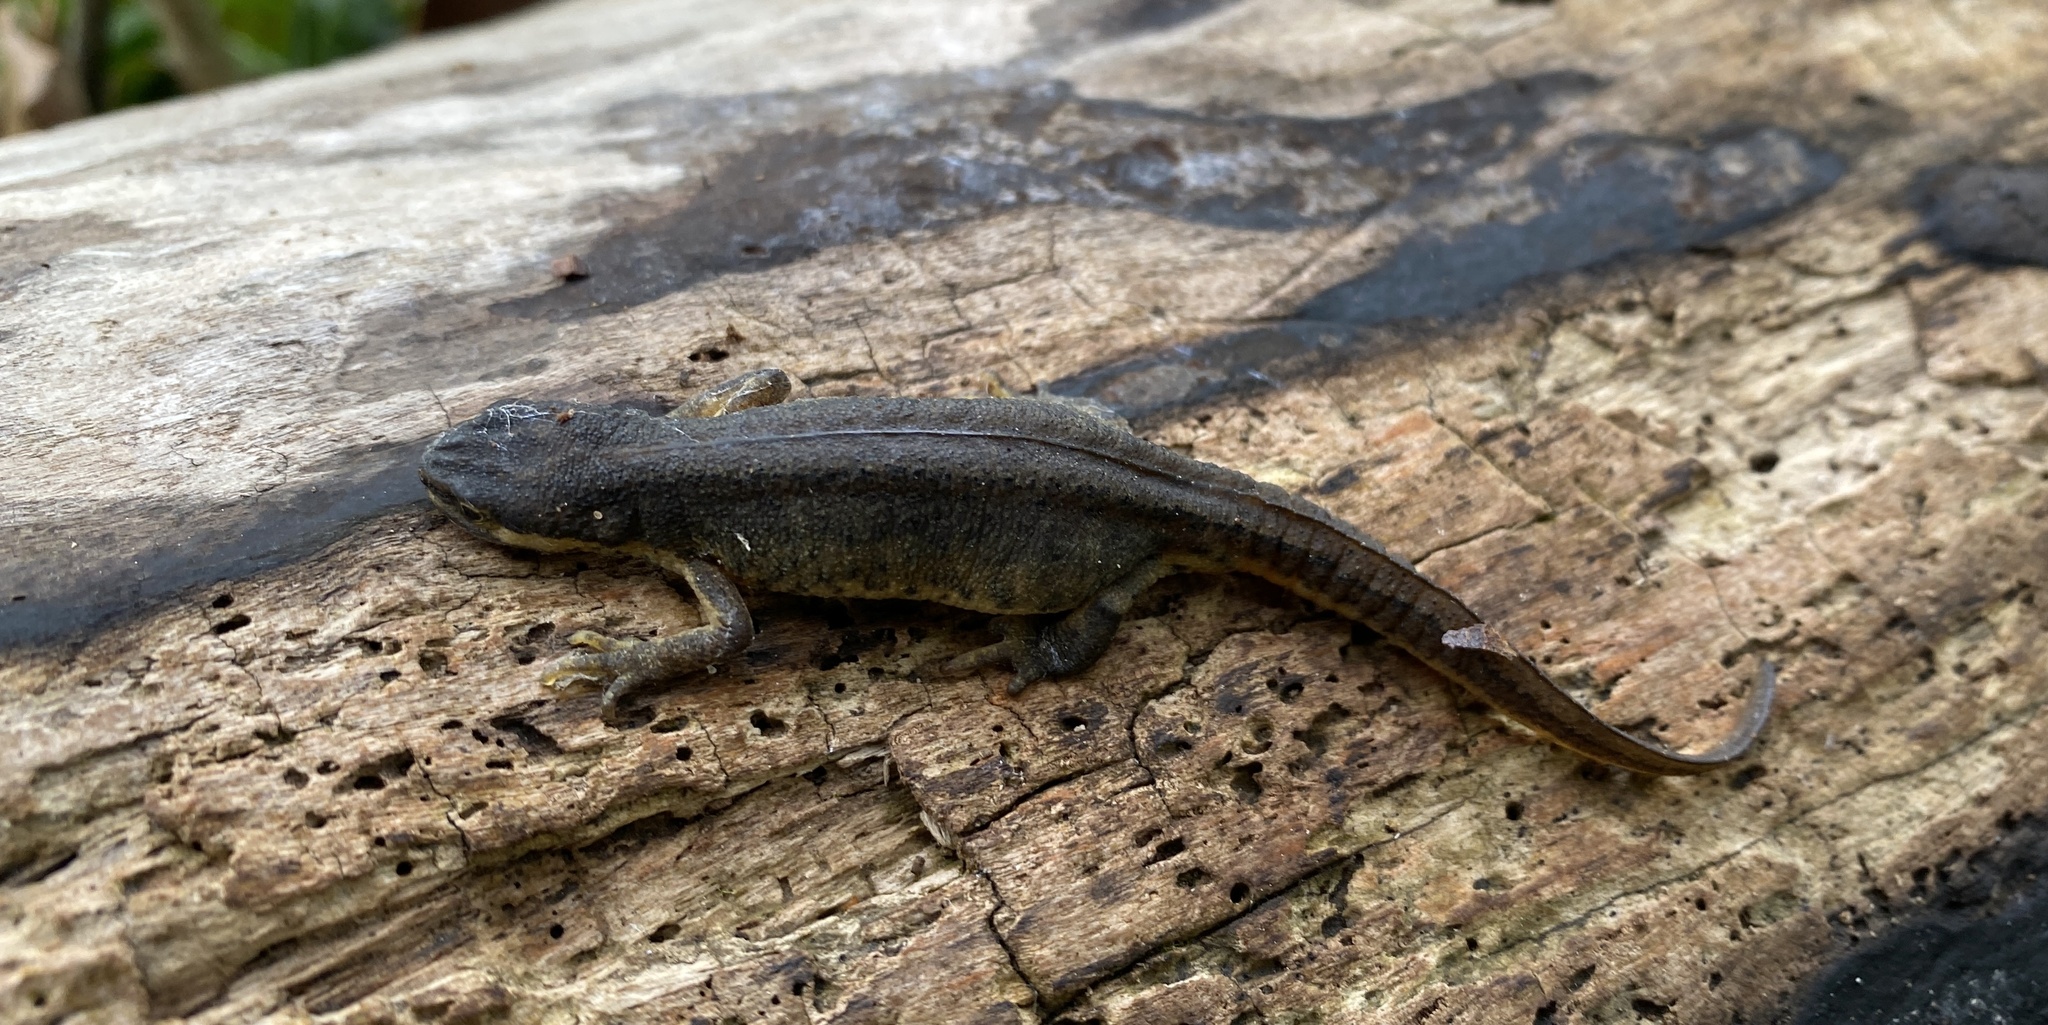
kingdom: Animalia
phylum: Chordata
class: Amphibia
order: Caudata
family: Salamandridae
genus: Lissotriton
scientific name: Lissotriton vulgaris
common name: Smooth newt
